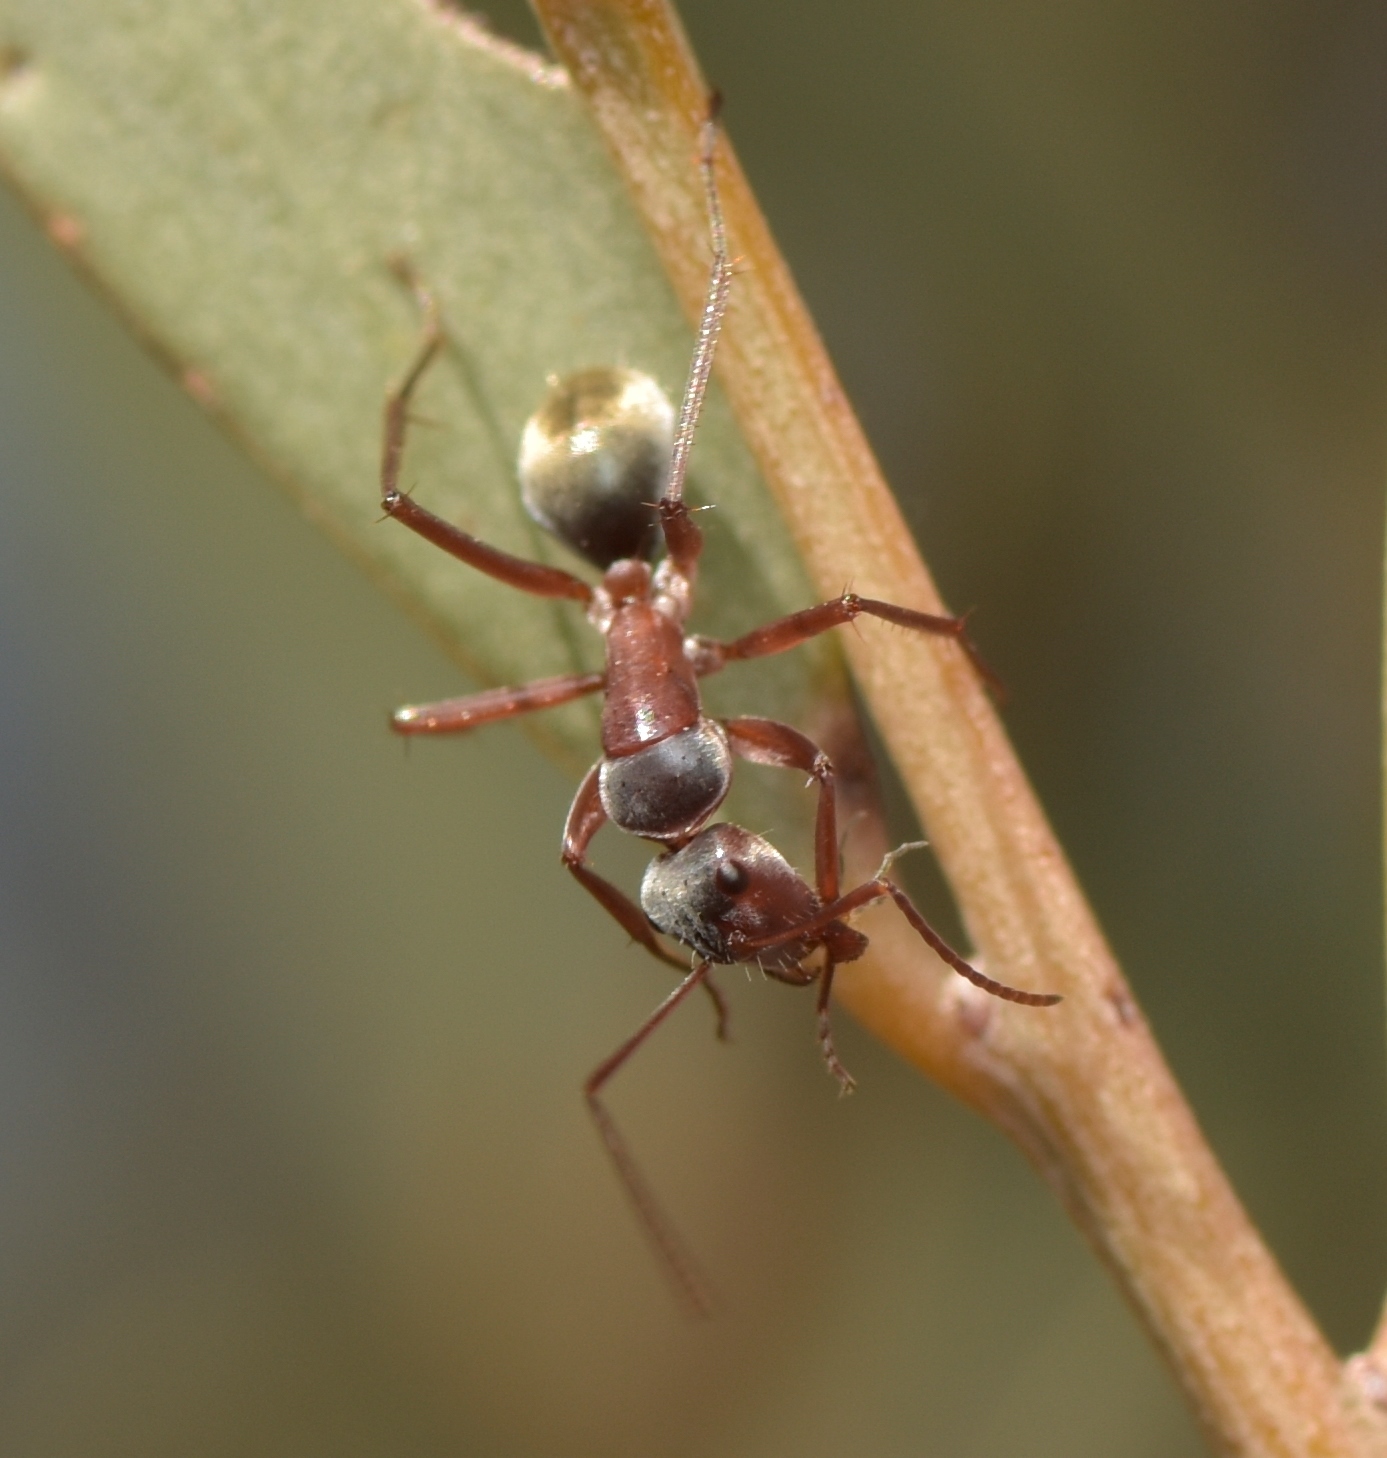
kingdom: Animalia
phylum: Arthropoda
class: Insecta
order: Hymenoptera
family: Formicidae
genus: Camponotus
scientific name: Camponotus wiederkehri
